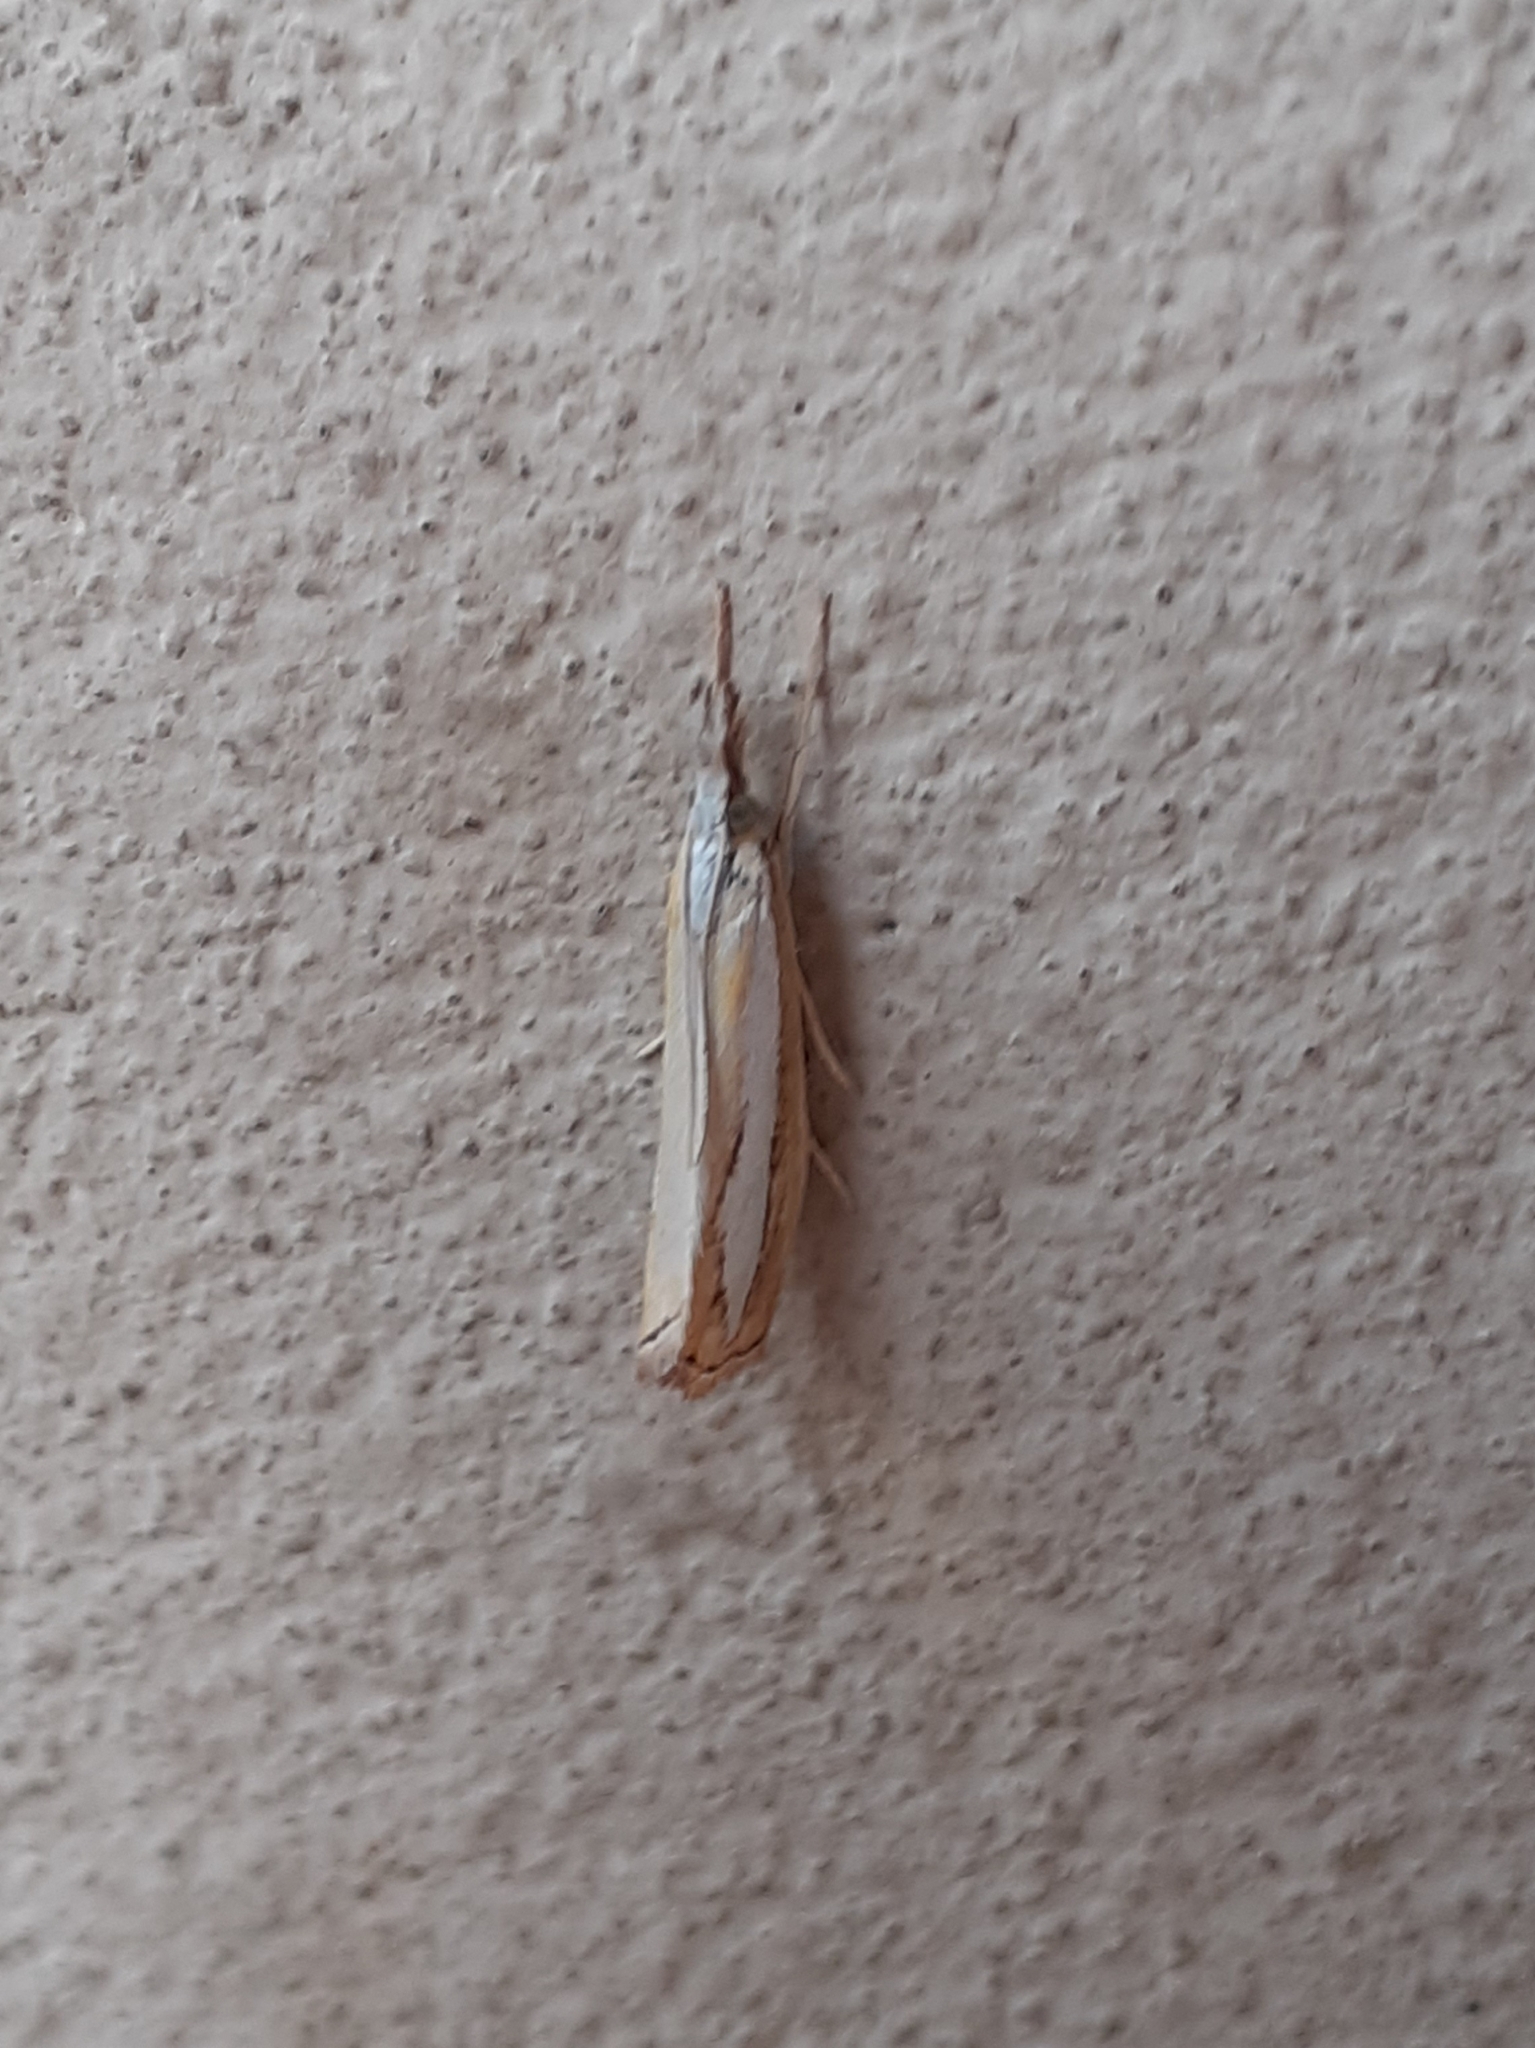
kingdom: Animalia
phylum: Arthropoda
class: Insecta
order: Lepidoptera
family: Crambidae
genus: Catoptria
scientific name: Catoptria margaritellus
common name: Pearl-band grass veneer
